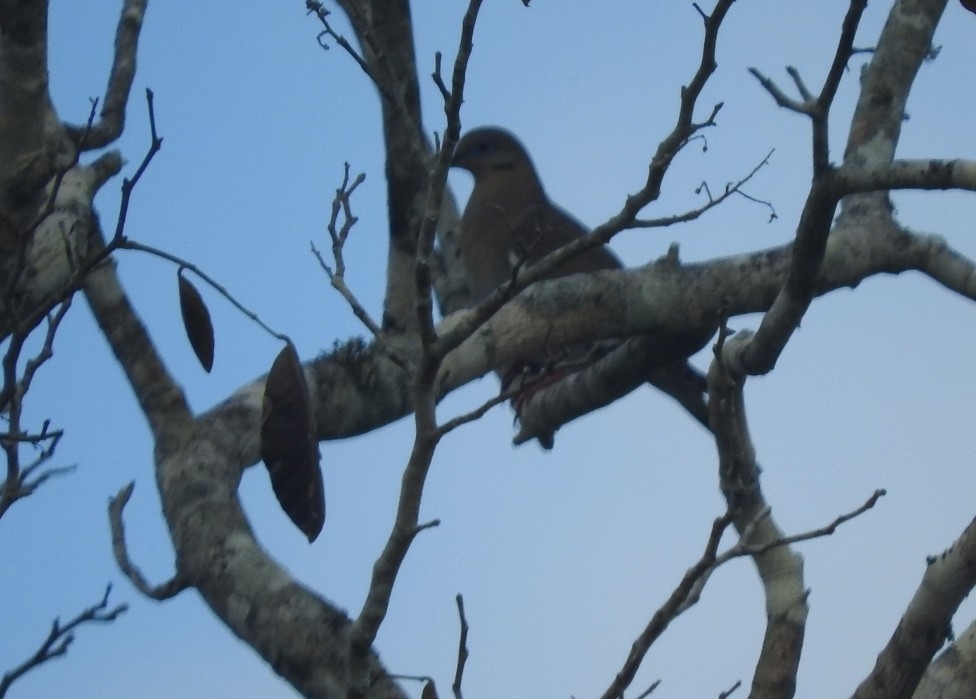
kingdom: Animalia
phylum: Chordata
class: Aves
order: Columbiformes
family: Columbidae
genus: Zenaida
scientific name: Zenaida asiatica
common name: White-winged dove
